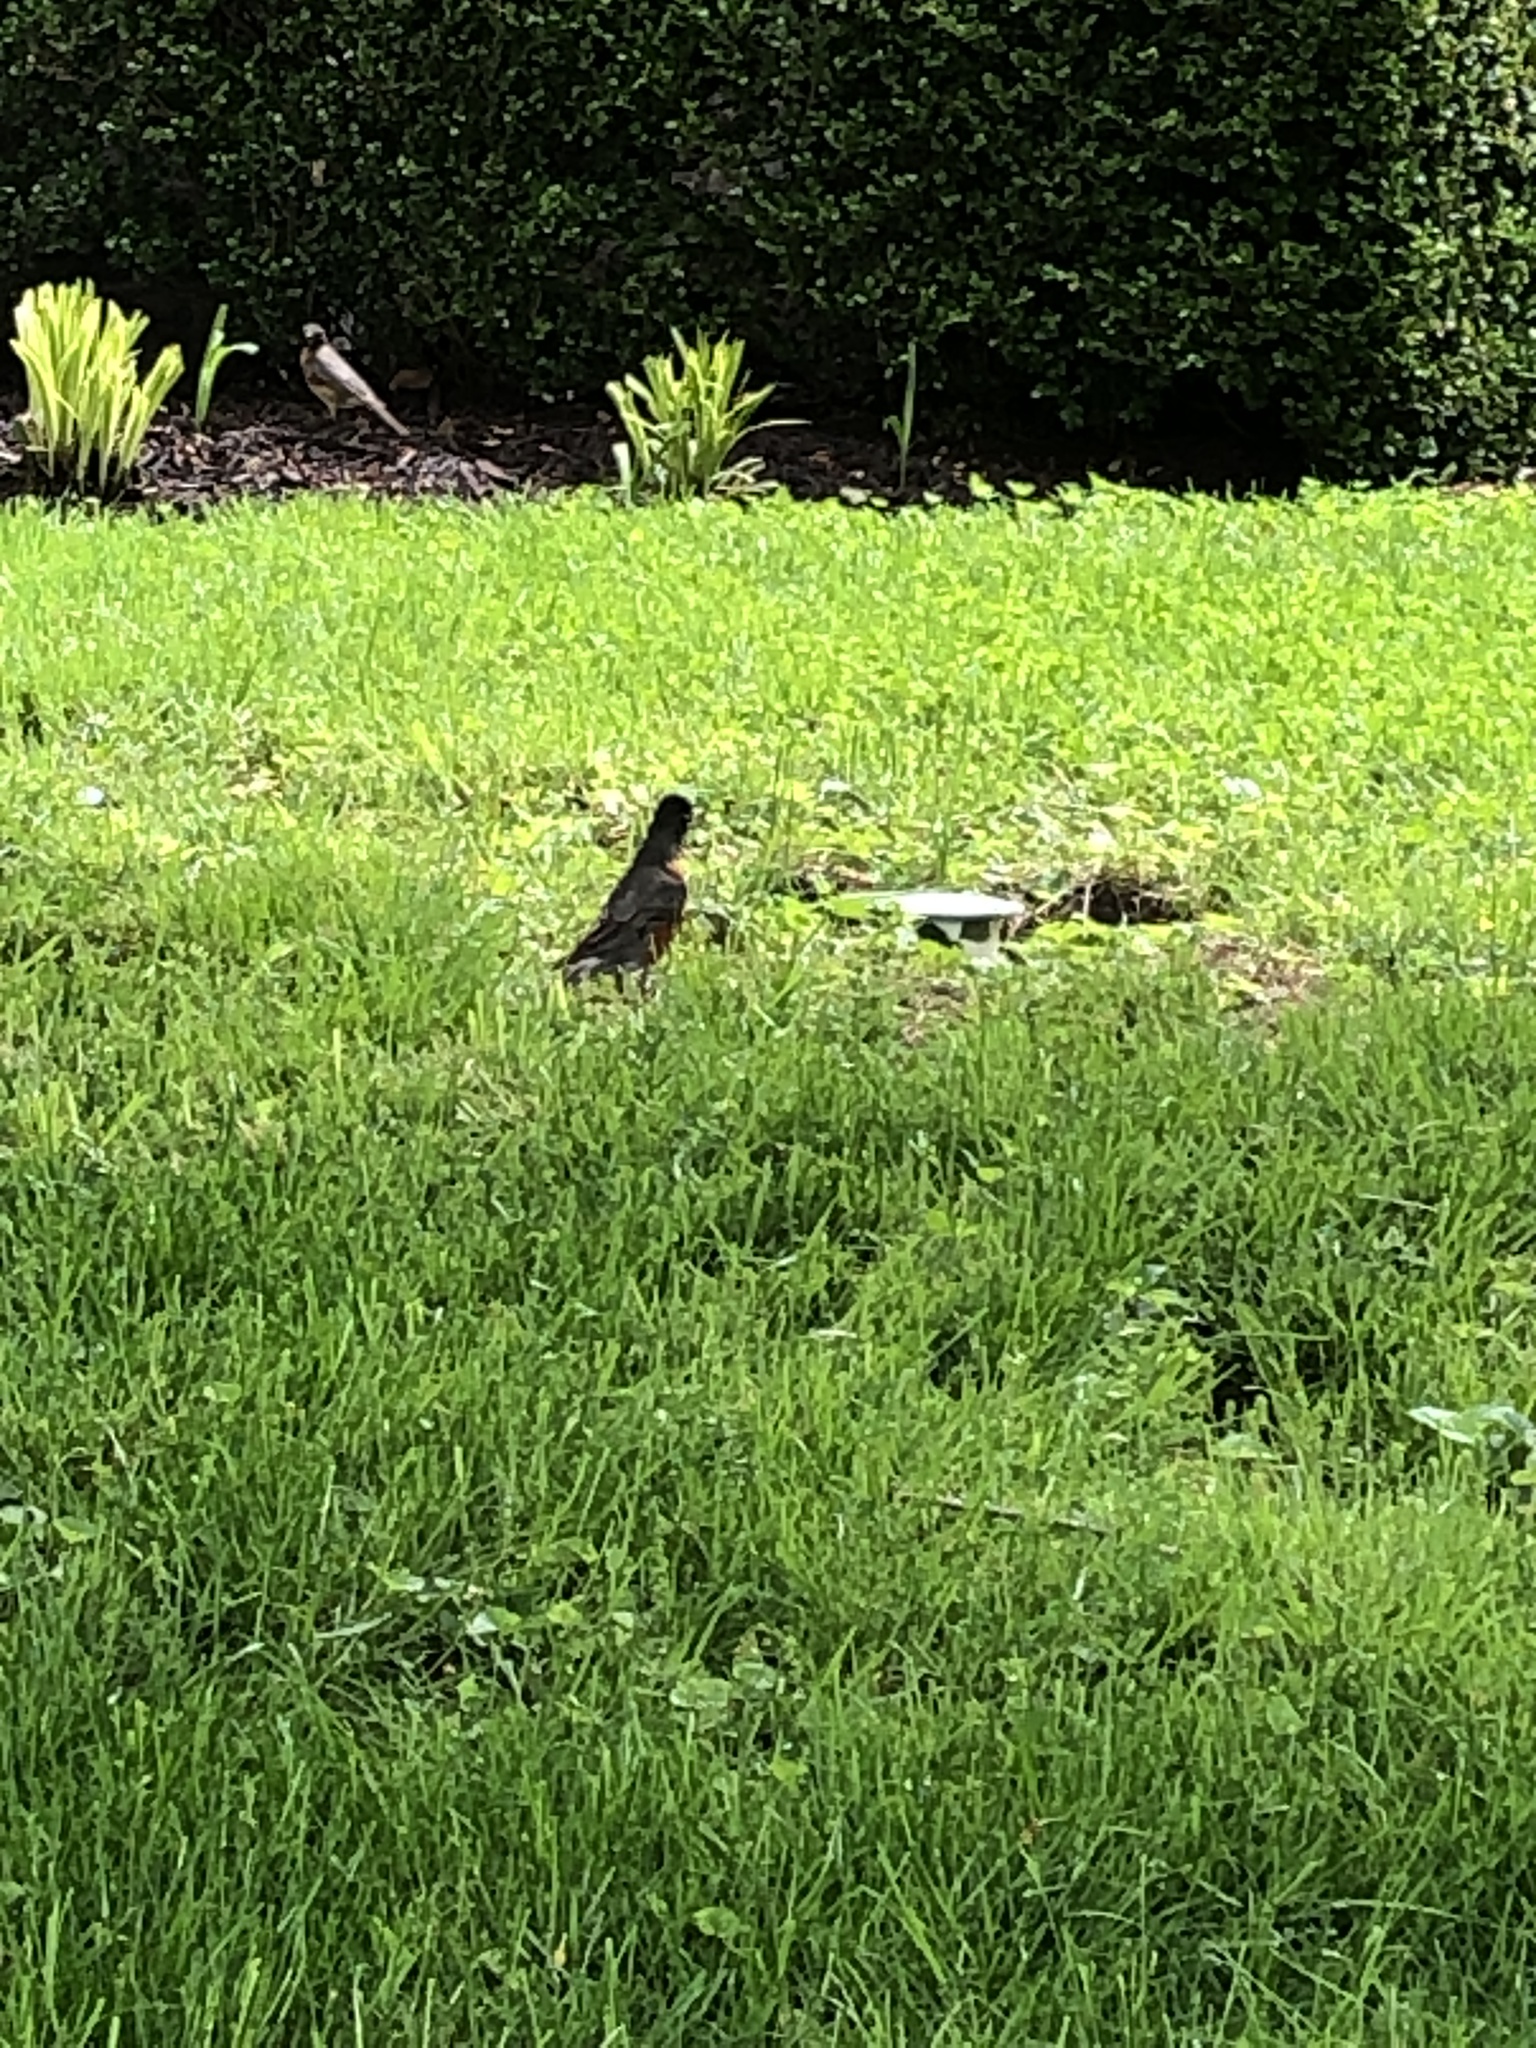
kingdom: Animalia
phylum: Chordata
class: Aves
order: Passeriformes
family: Turdidae
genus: Turdus
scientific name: Turdus migratorius
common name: American robin
